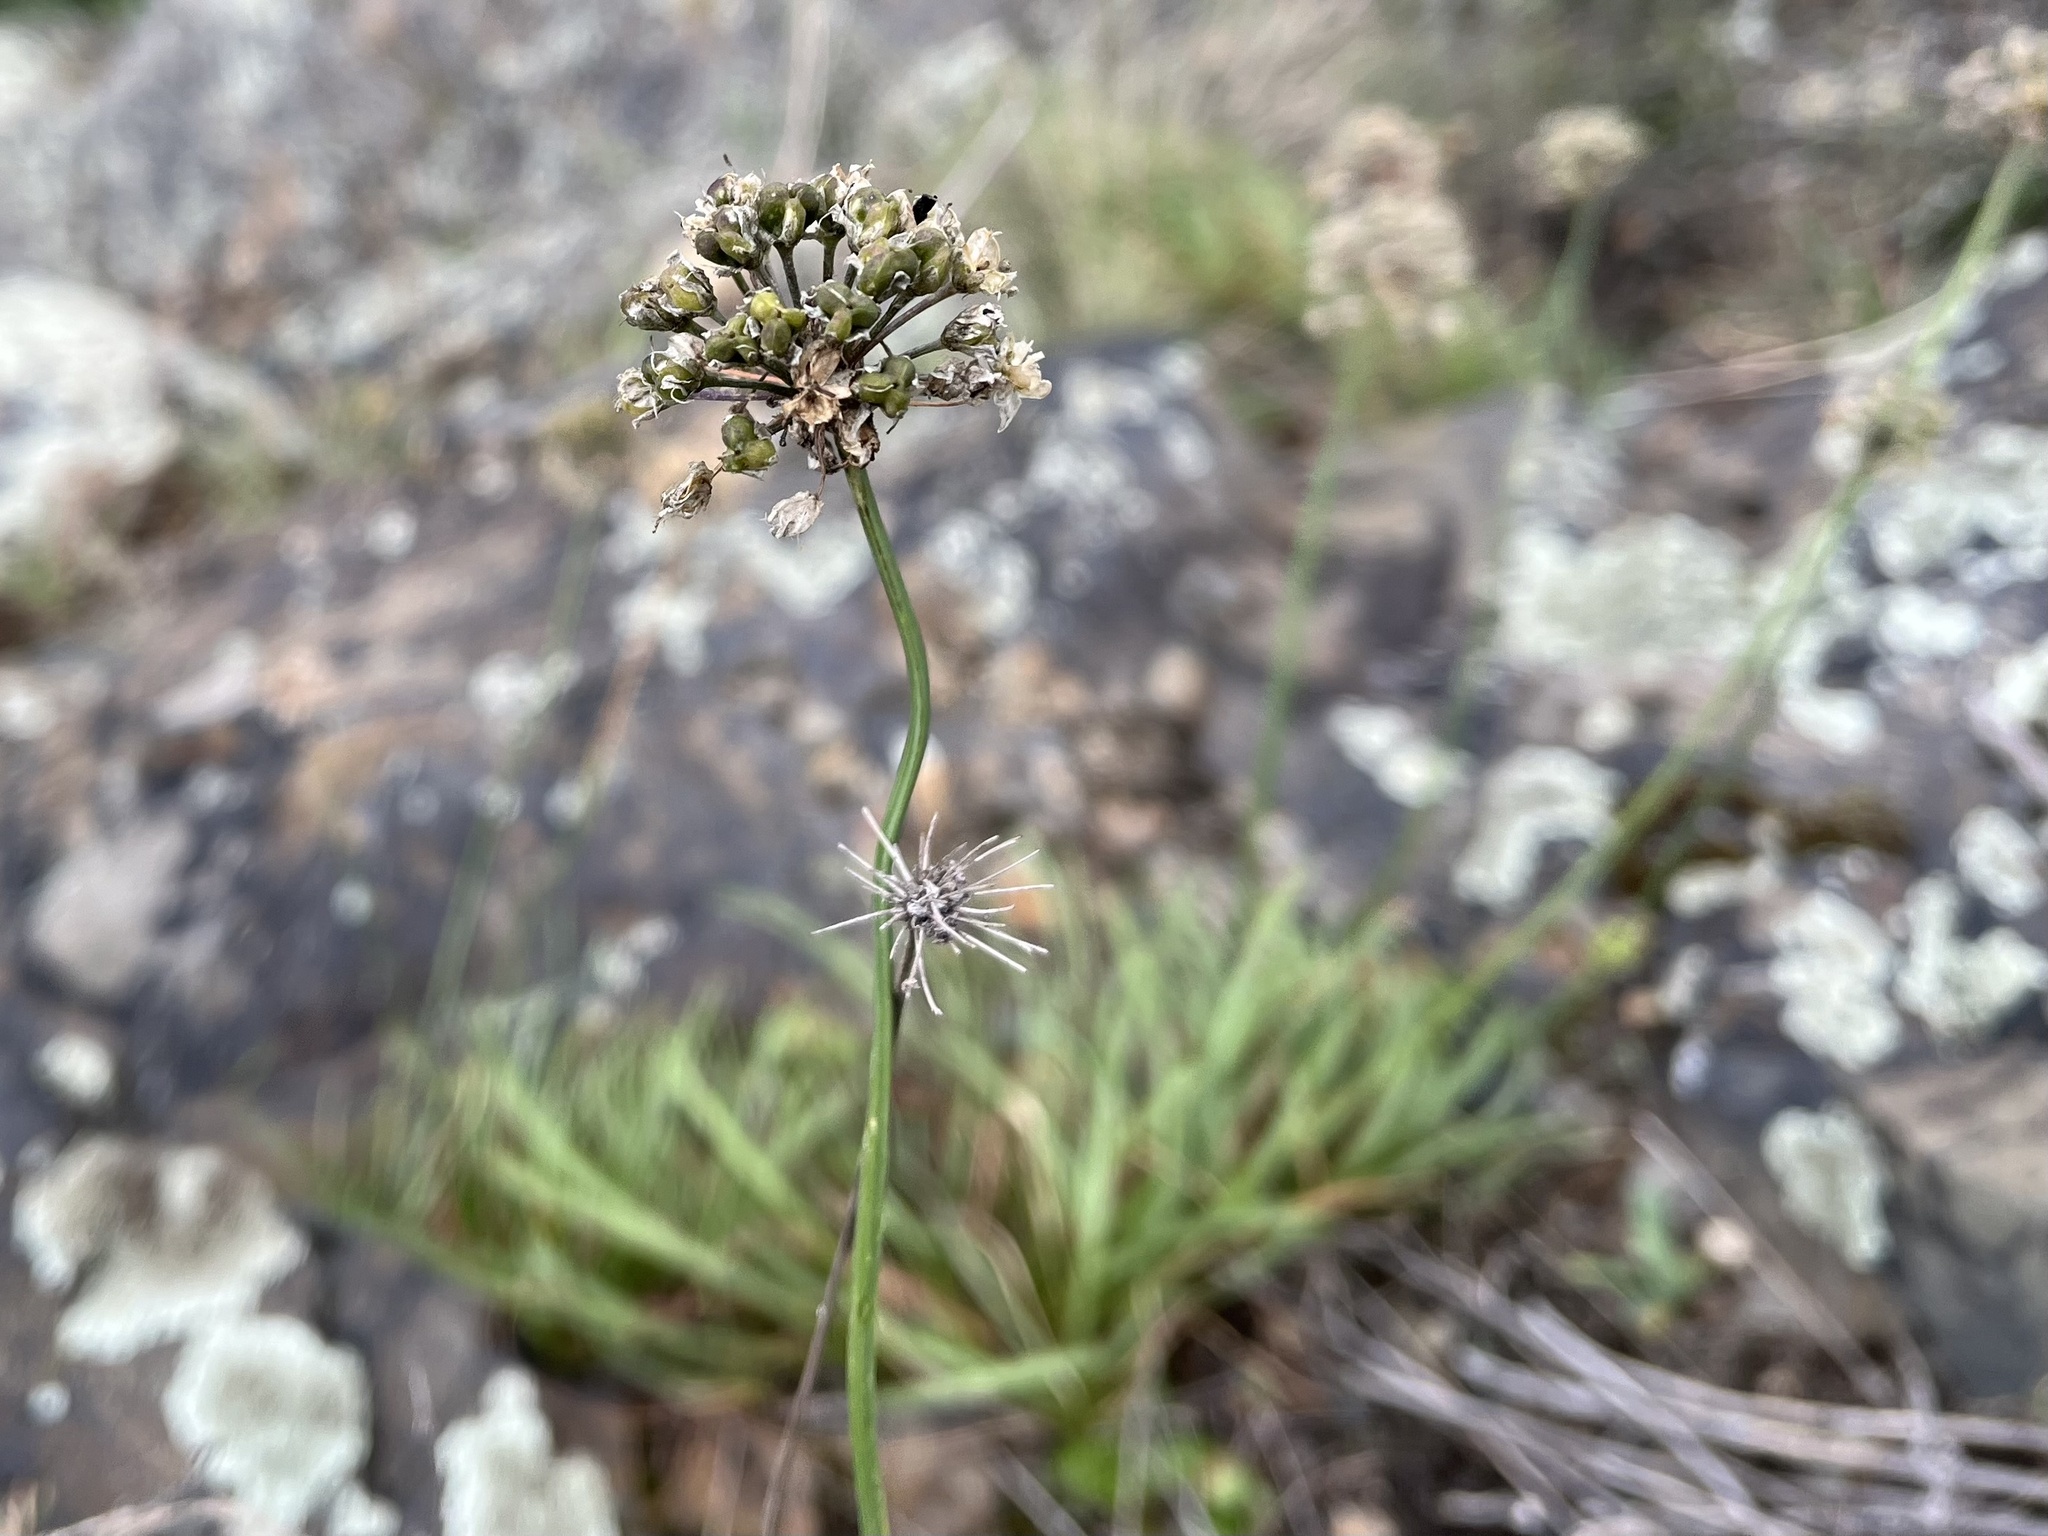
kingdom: Plantae
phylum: Tracheophyta
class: Liliopsida
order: Asparagales
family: Amaryllidaceae
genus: Allium
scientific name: Allium lusitanicum
